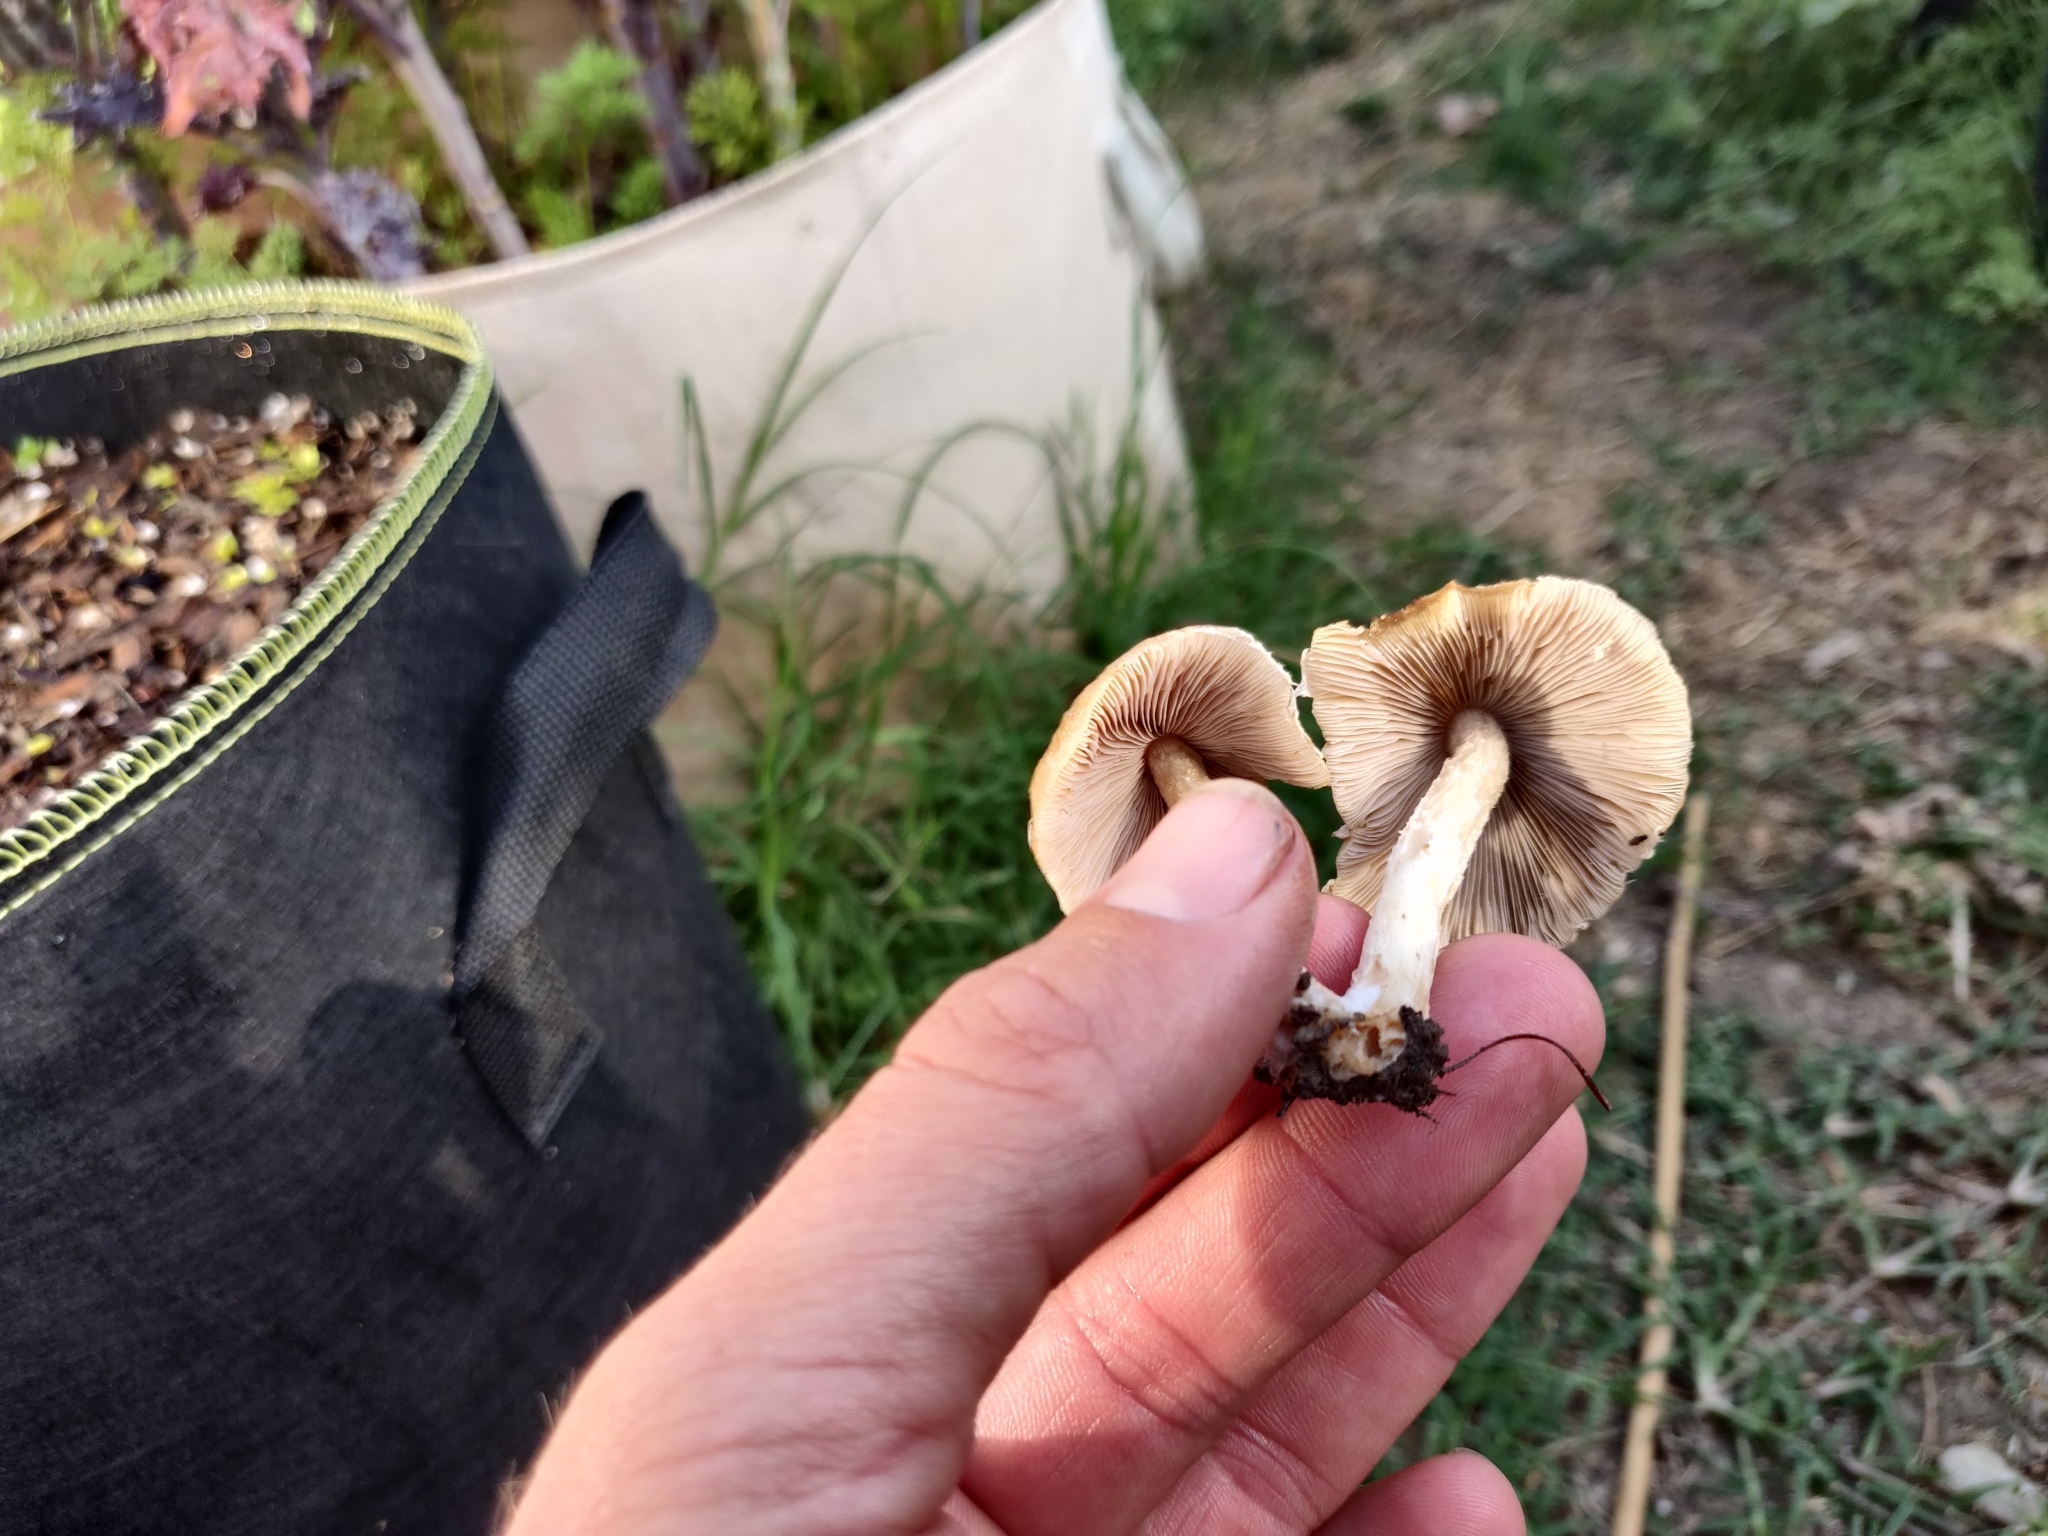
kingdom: Fungi
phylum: Basidiomycota
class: Agaricomycetes
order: Agaricales
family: Psathyrellaceae
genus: Candolleomyces
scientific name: Candolleomyces candolleanus
